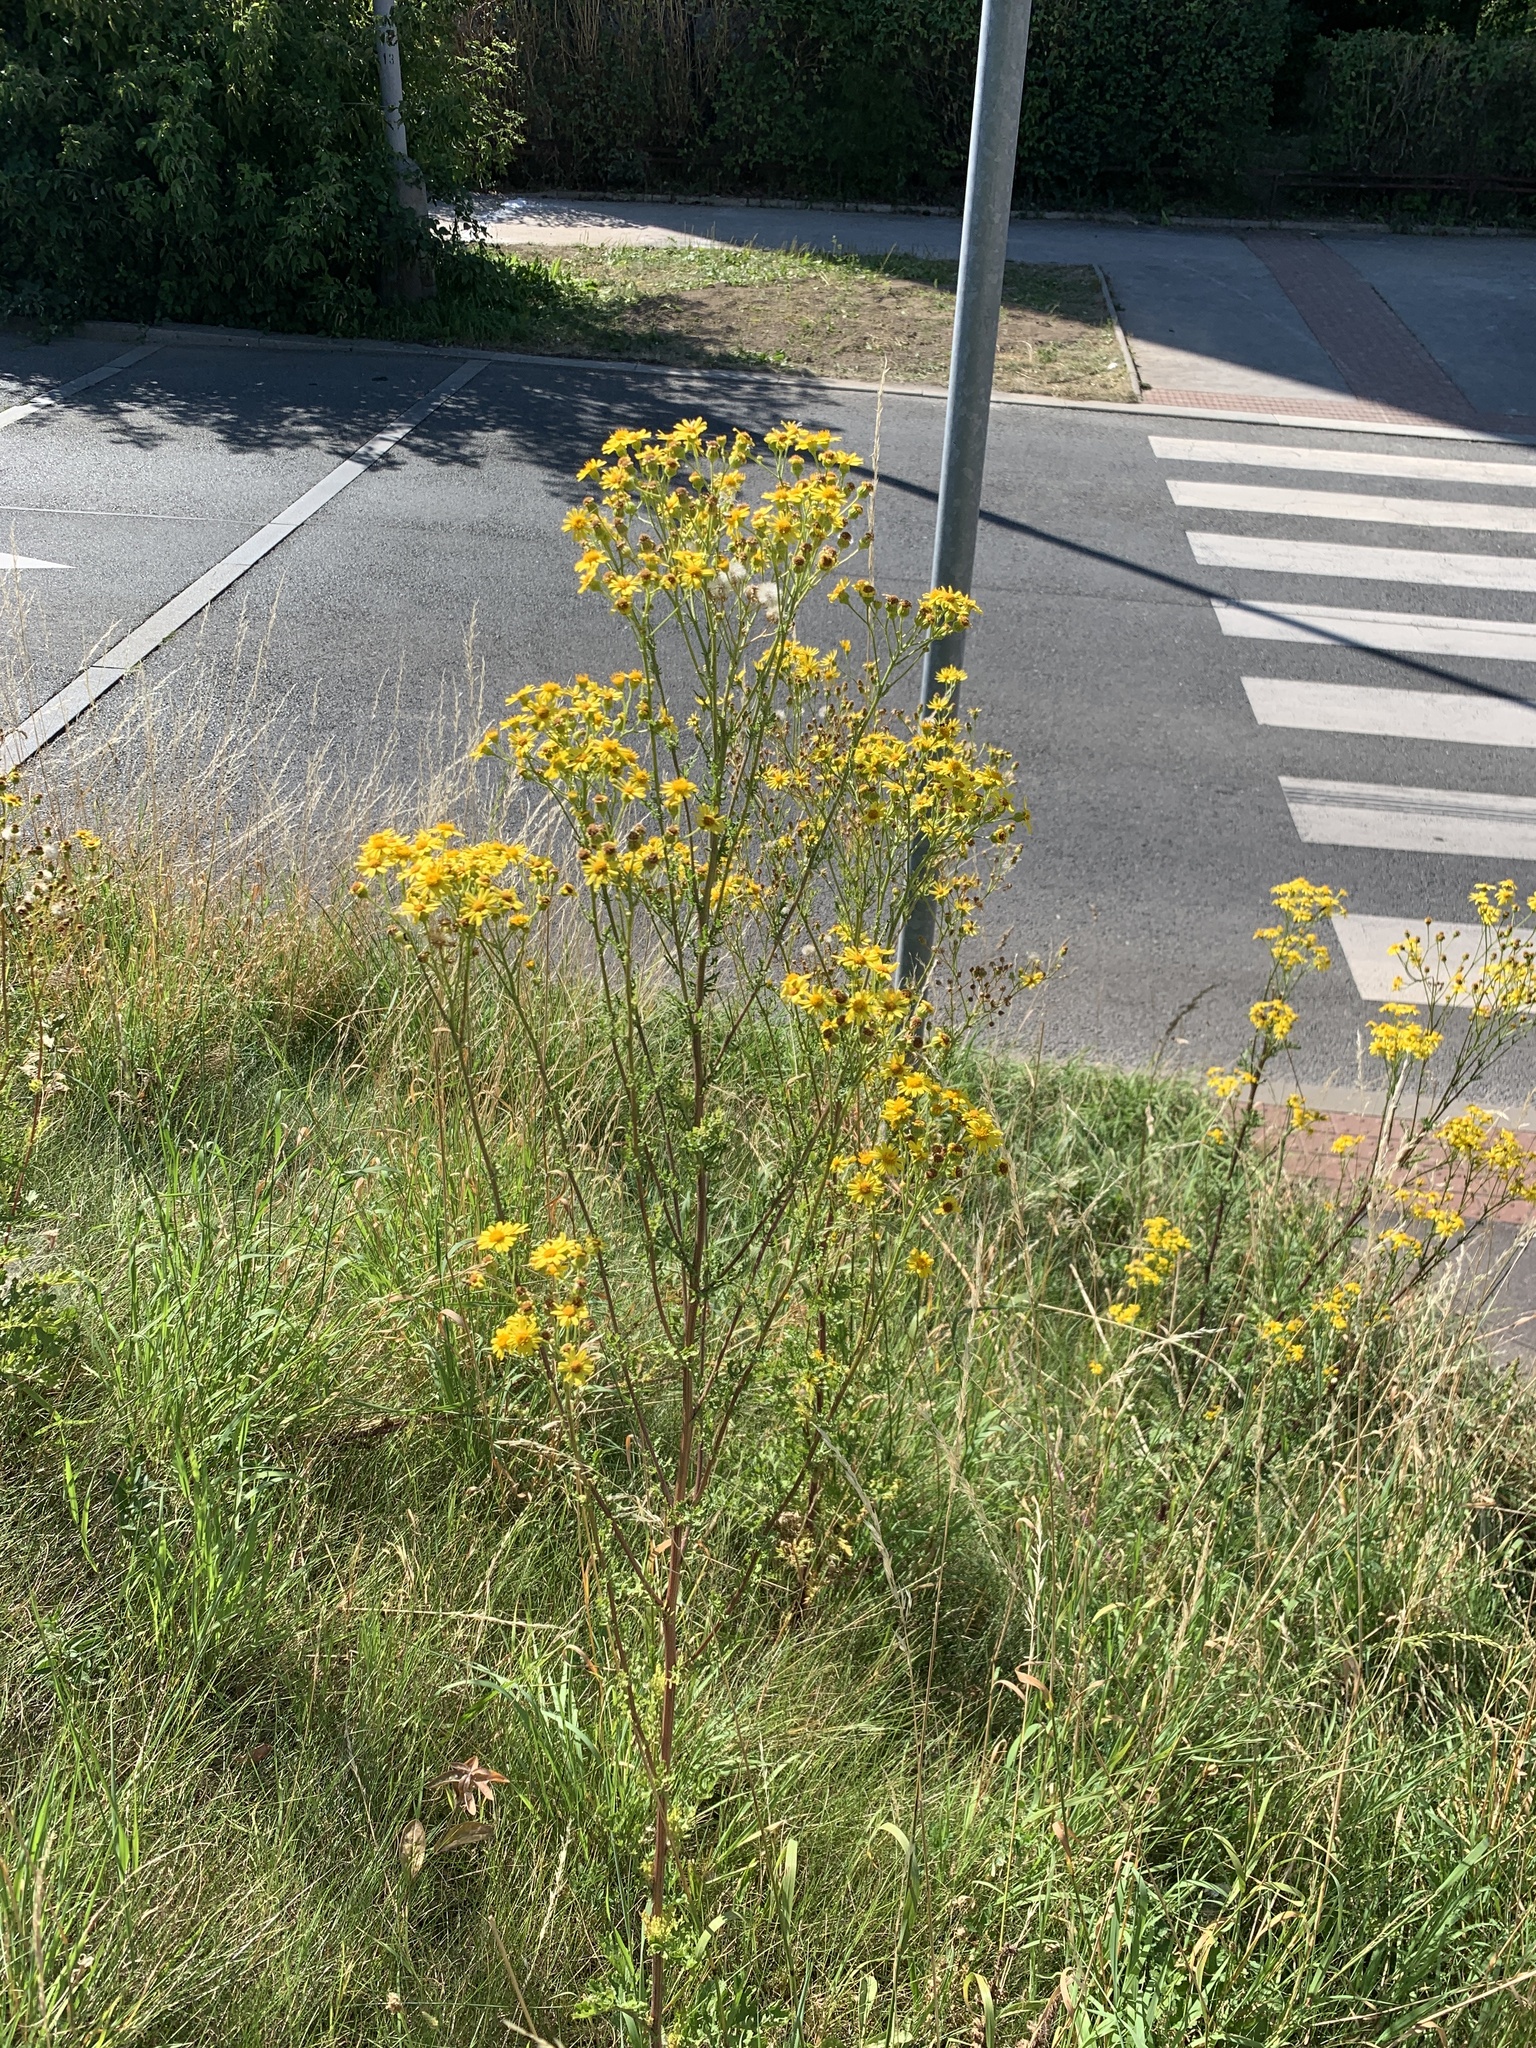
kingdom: Plantae
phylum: Tracheophyta
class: Magnoliopsida
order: Asterales
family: Asteraceae
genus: Jacobaea
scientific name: Jacobaea vulgaris
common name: Stinking willie
